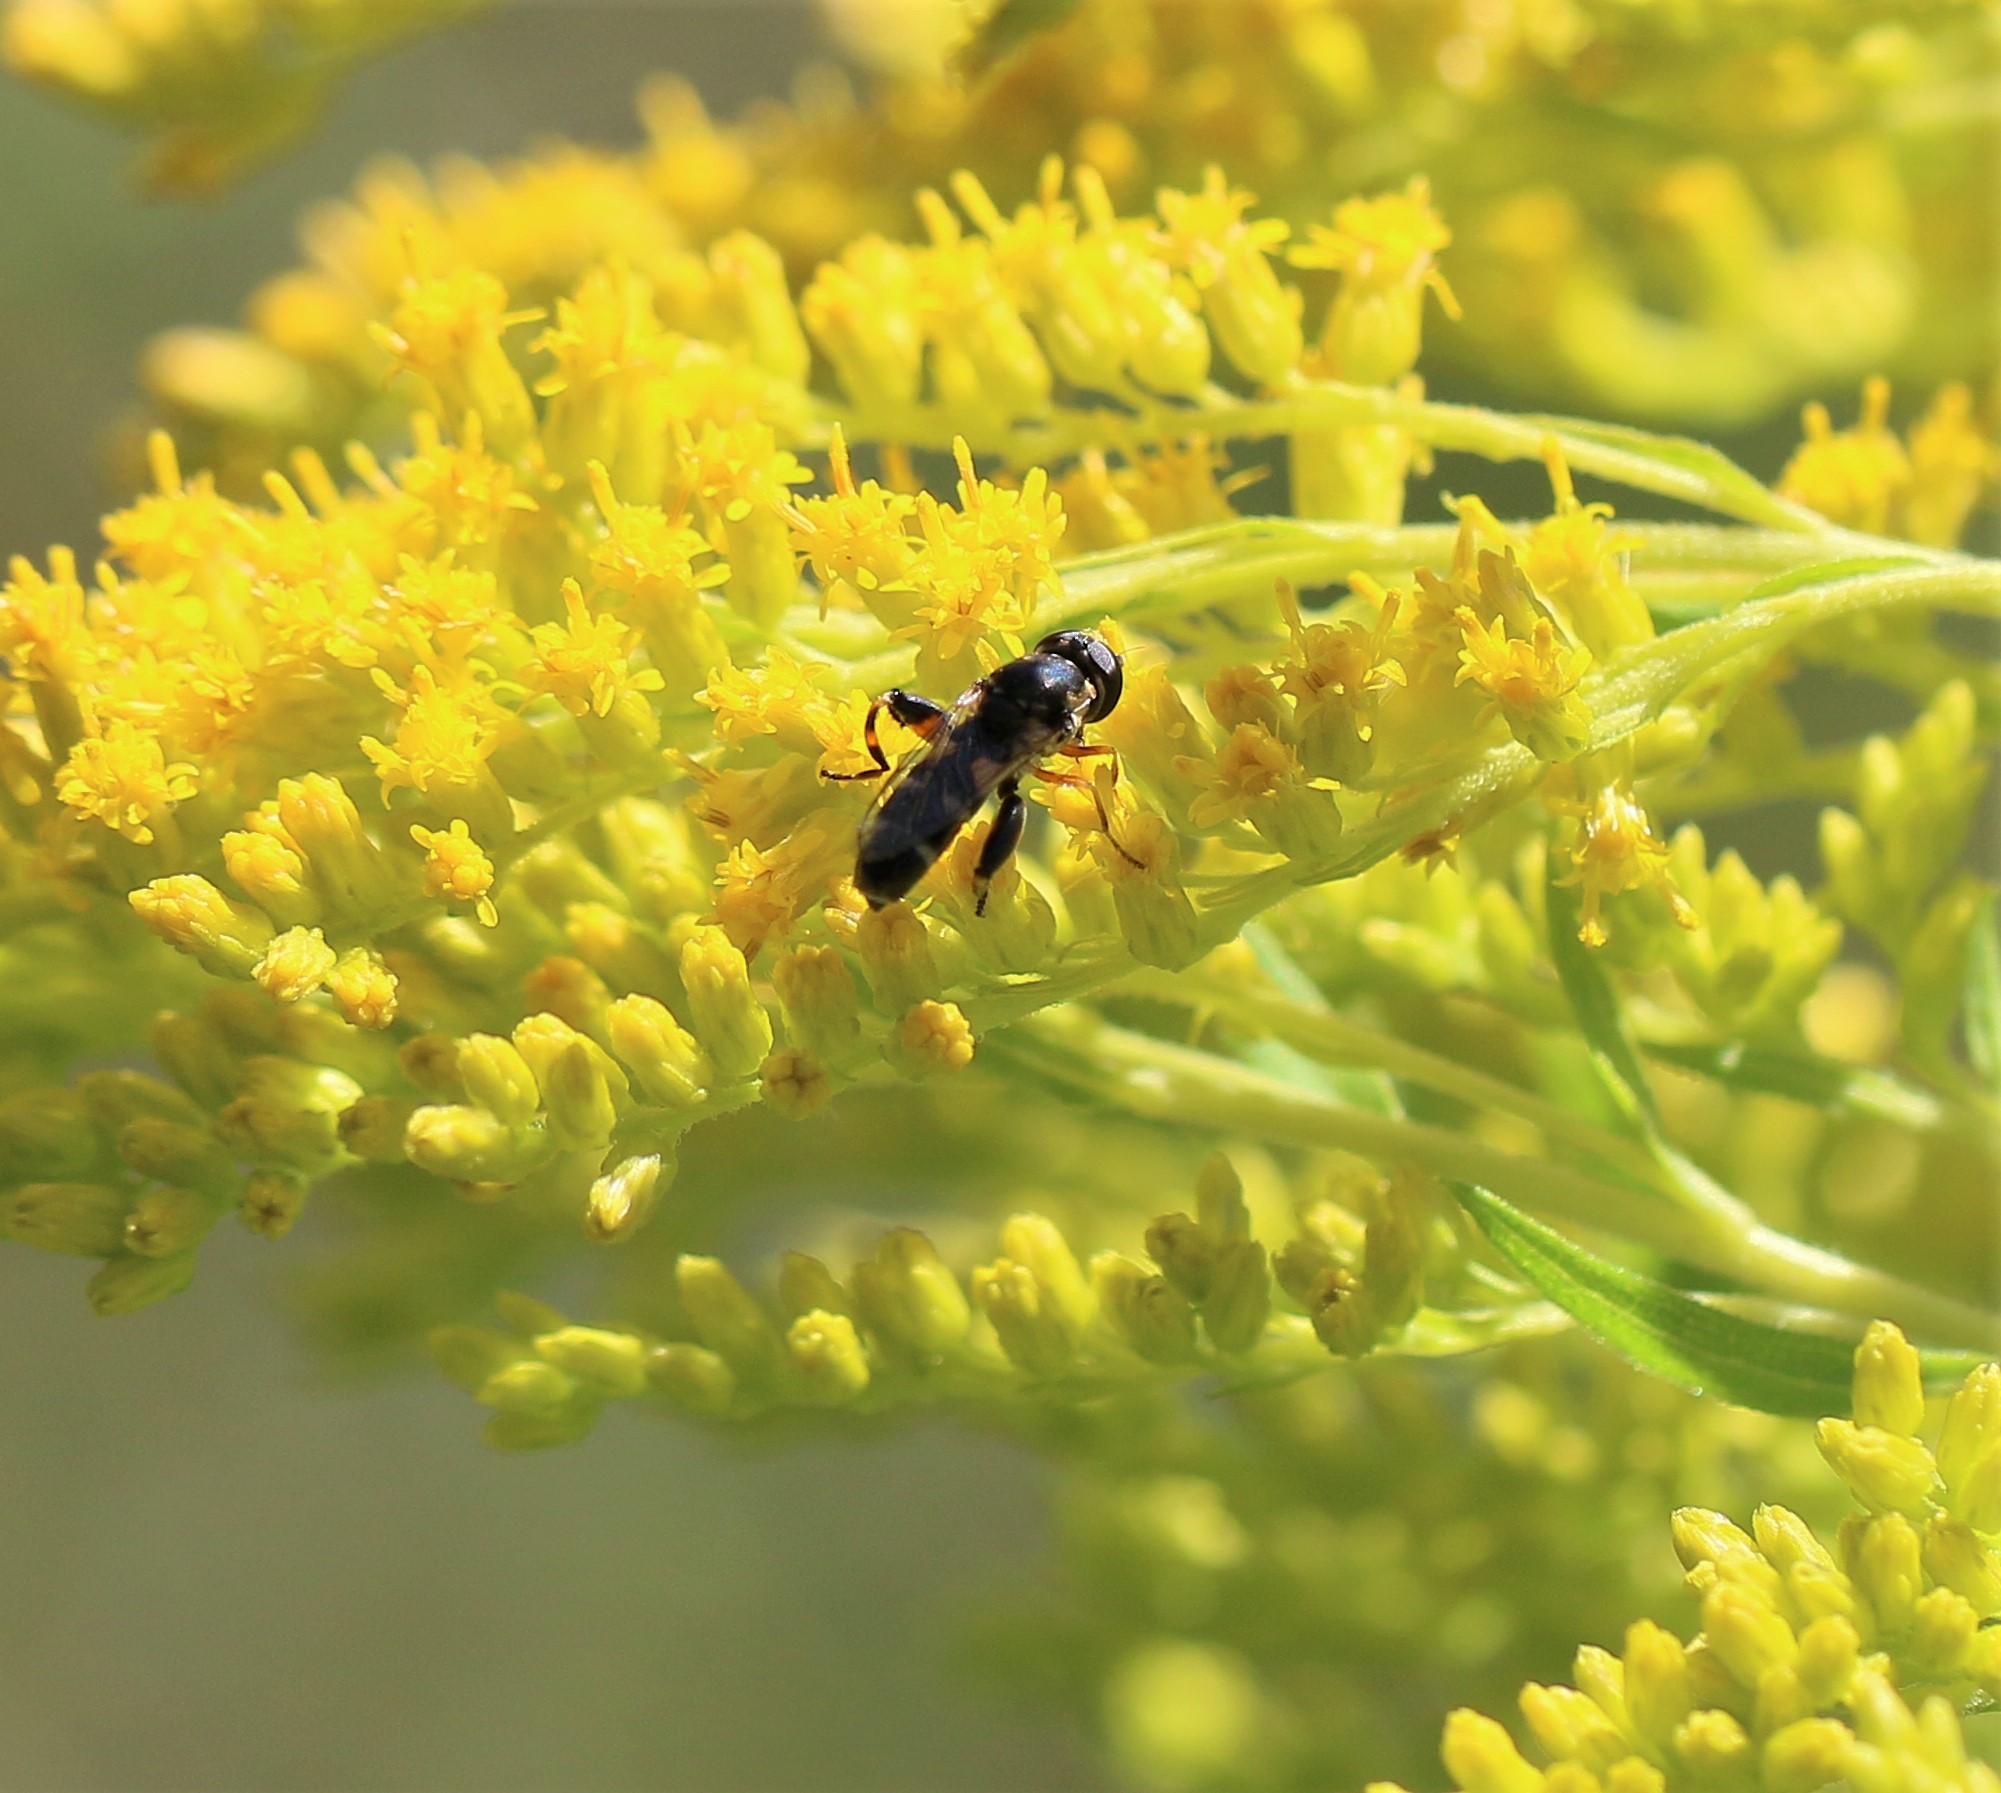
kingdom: Animalia
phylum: Arthropoda
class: Insecta
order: Diptera
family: Syrphidae
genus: Syritta
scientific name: Syritta pipiens
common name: Hover fly
